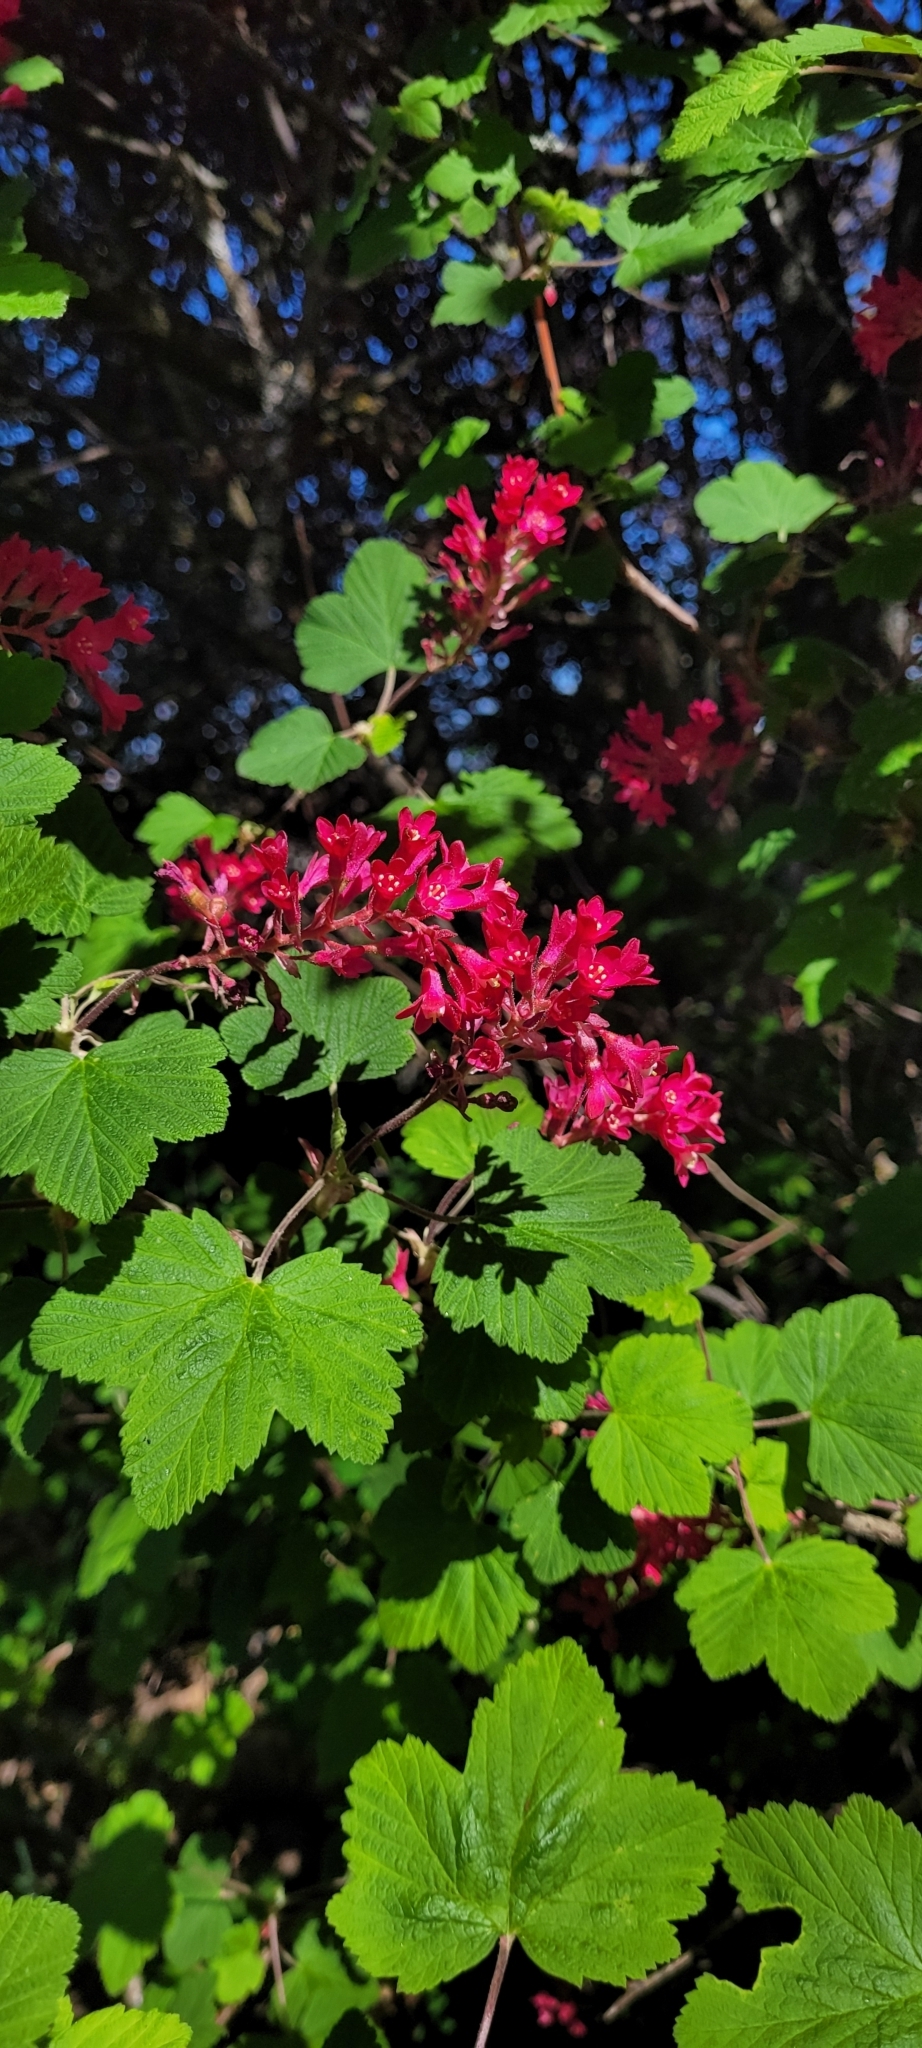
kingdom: Plantae
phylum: Tracheophyta
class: Magnoliopsida
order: Saxifragales
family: Grossulariaceae
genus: Ribes
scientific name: Ribes sanguineum
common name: Flowering currant
